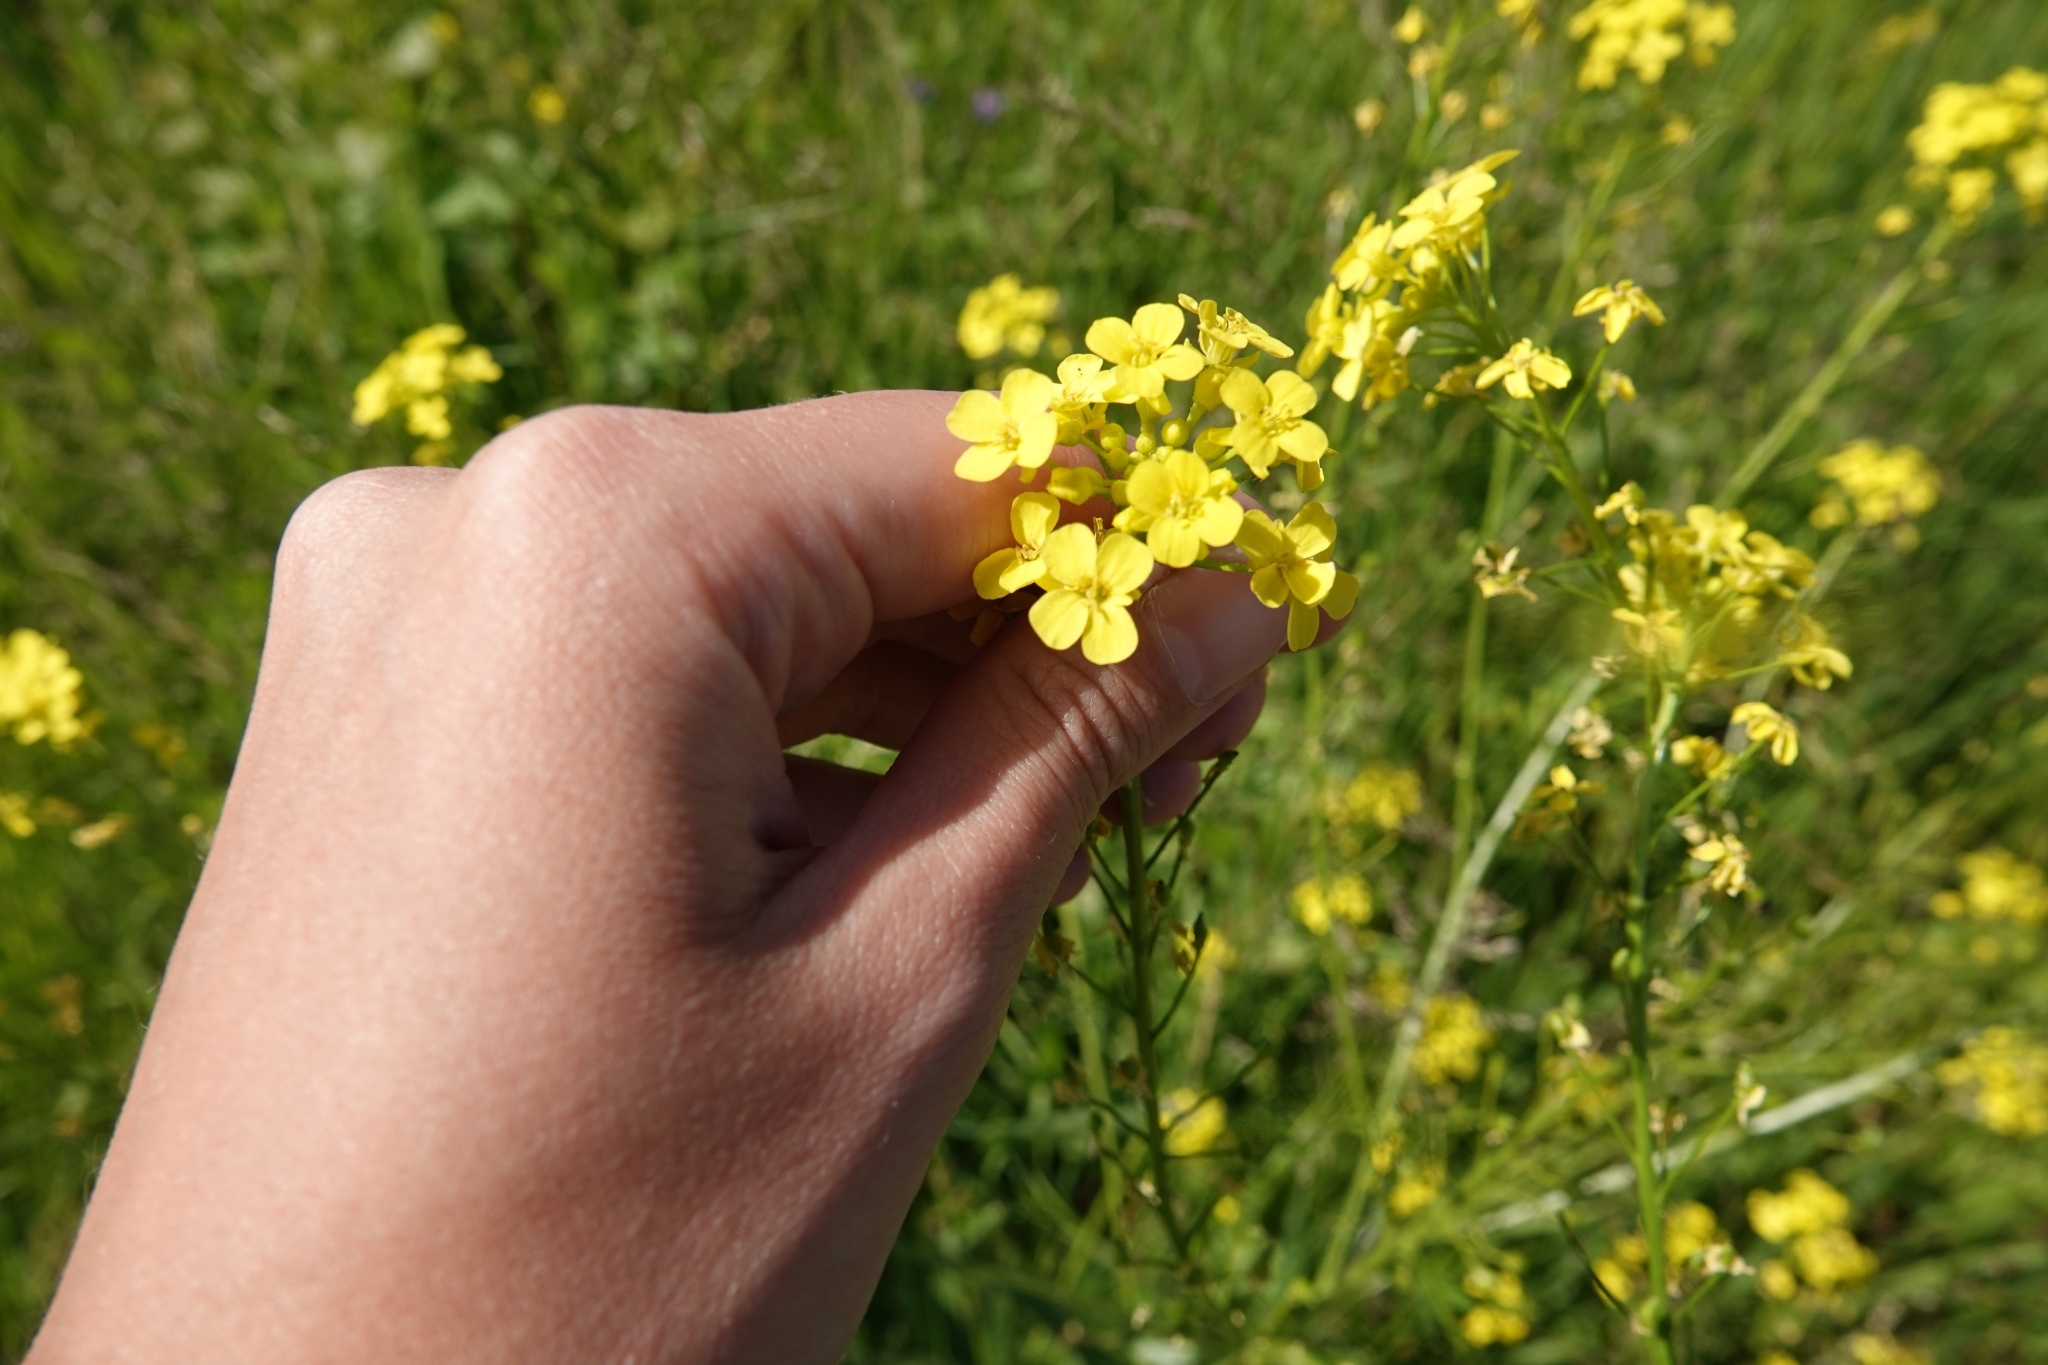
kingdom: Plantae
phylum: Tracheophyta
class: Magnoliopsida
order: Brassicales
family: Brassicaceae
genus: Bunias
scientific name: Bunias orientalis
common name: Warty-cabbage
